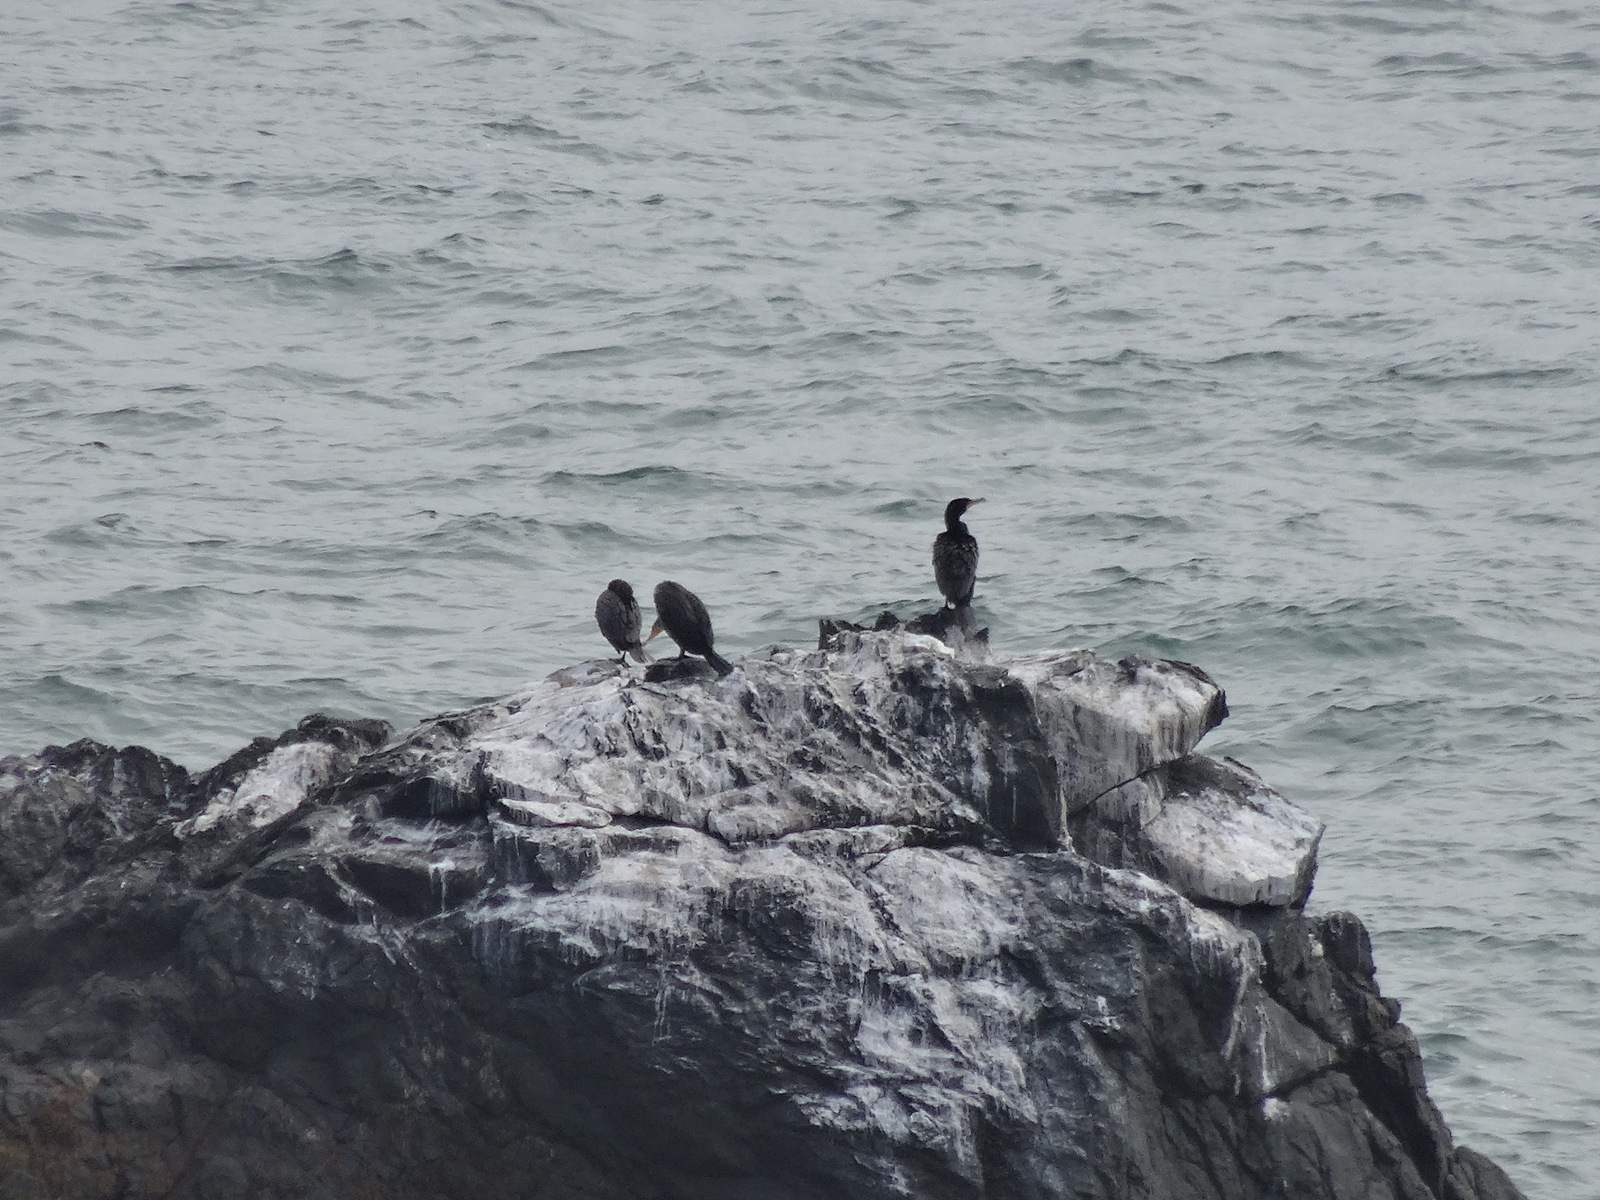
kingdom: Animalia
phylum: Chordata
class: Aves
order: Suliformes
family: Phalacrocoracidae
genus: Phalacrocorax
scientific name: Phalacrocorax auritus
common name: Double-crested cormorant
